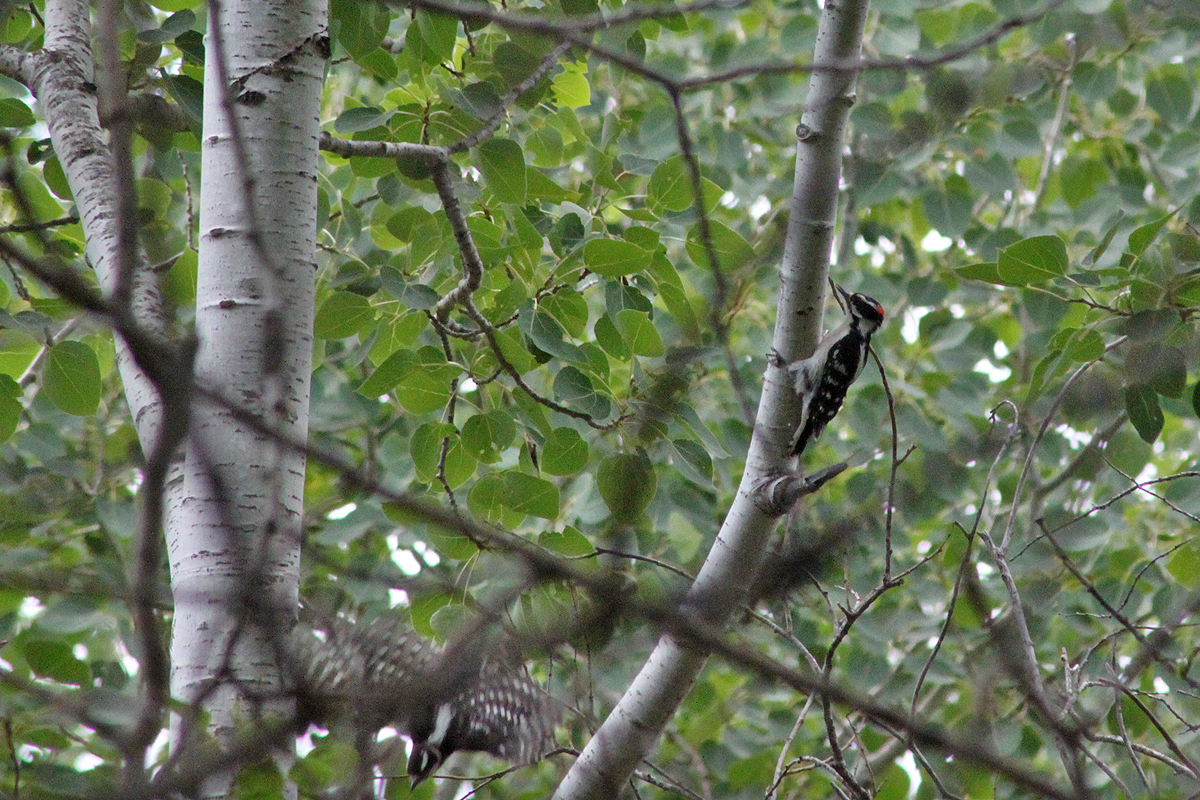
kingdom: Animalia
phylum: Chordata
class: Aves
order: Piciformes
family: Picidae
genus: Dryobates
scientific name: Dryobates pubescens
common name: Downy woodpecker
